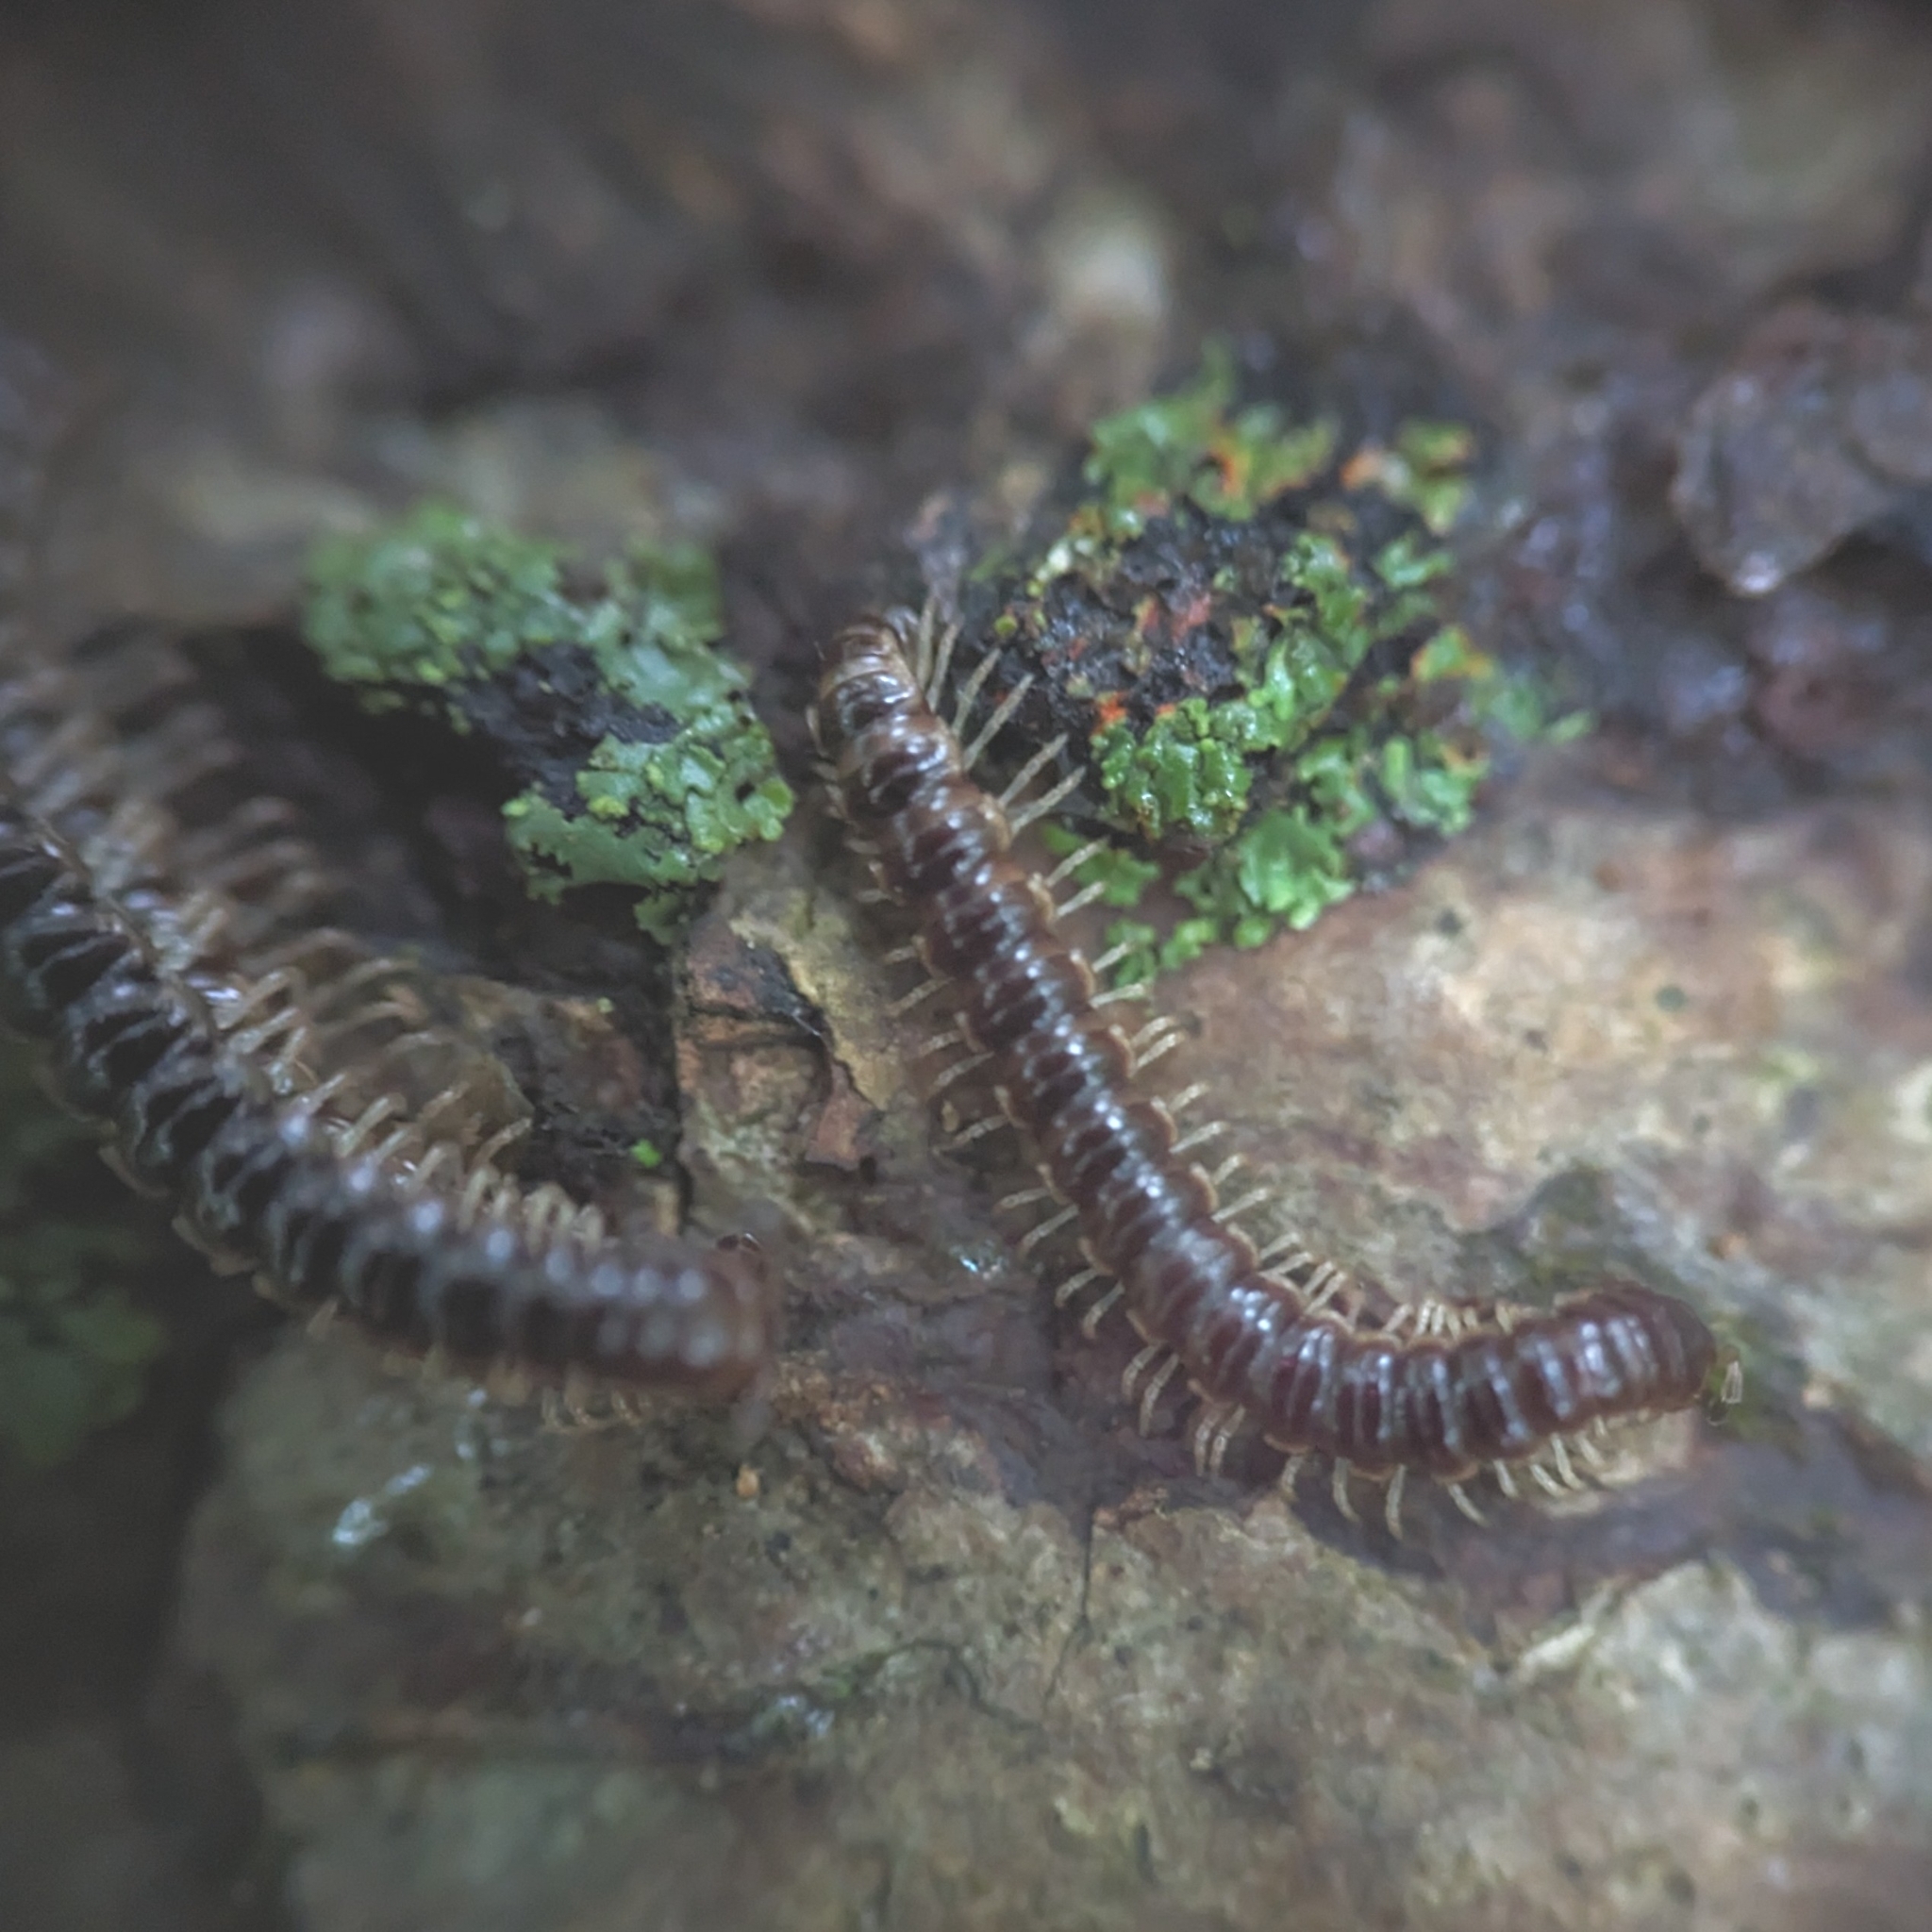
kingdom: Animalia
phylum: Arthropoda
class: Diplopoda
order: Polydesmida
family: Paradoxosomatidae
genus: Oxidus
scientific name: Oxidus gracilis
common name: Greenhouse millipede
